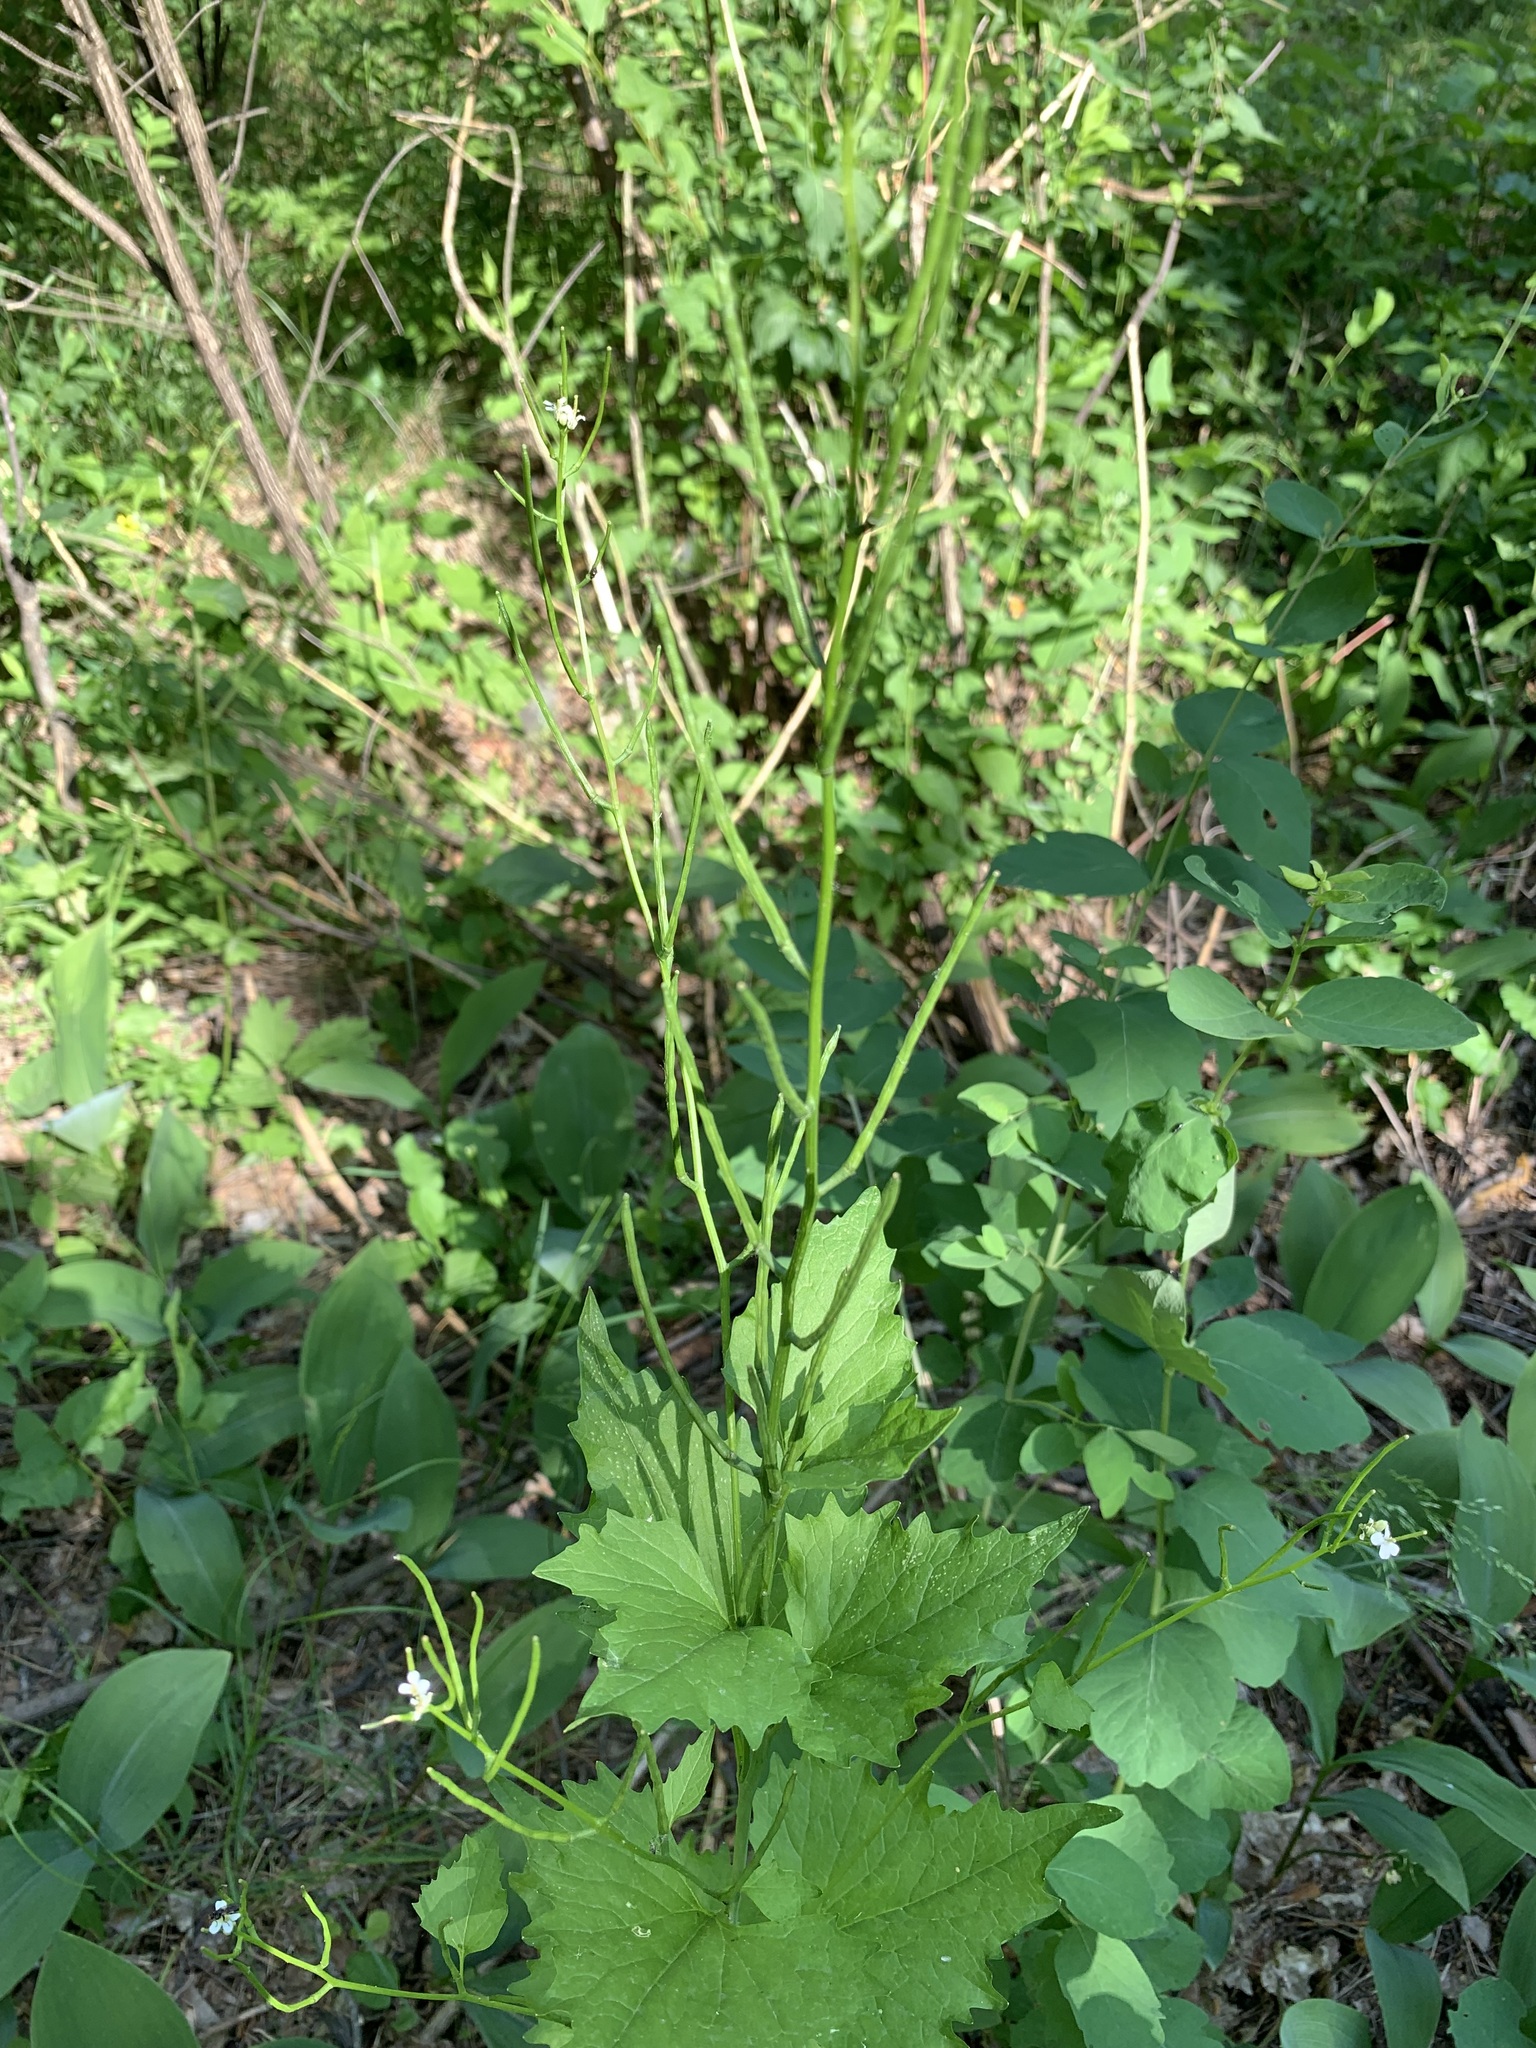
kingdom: Plantae
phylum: Tracheophyta
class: Magnoliopsida
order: Brassicales
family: Brassicaceae
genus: Alliaria
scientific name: Alliaria petiolata
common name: Garlic mustard
